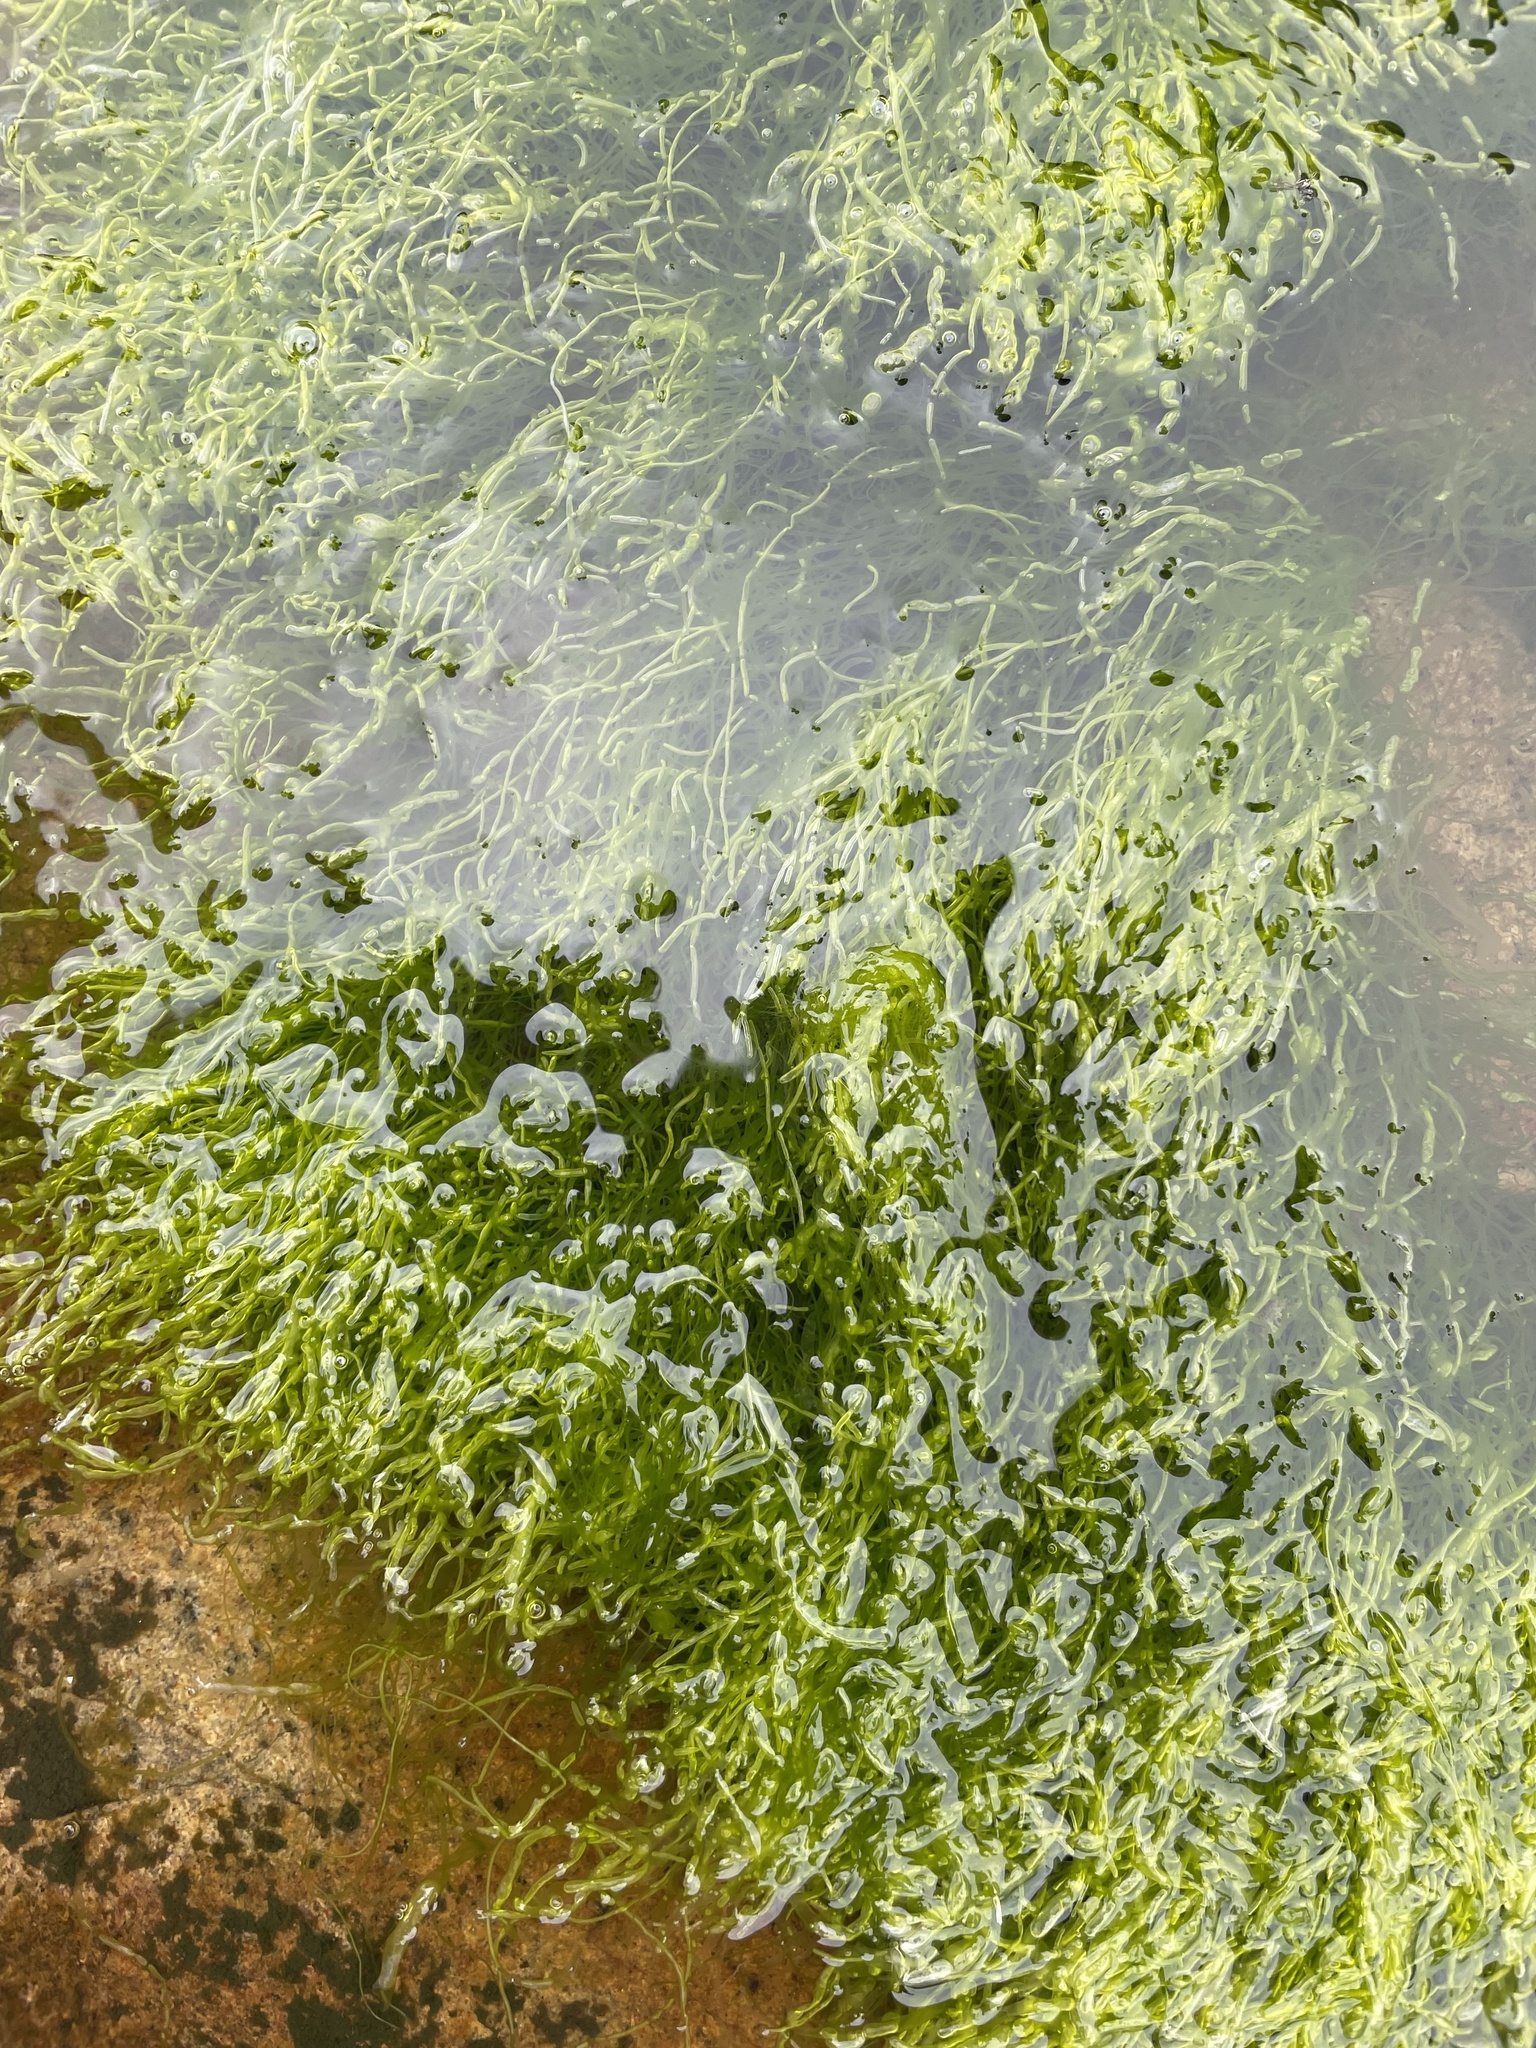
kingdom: Plantae
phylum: Chlorophyta
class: Ulvophyceae
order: Ulvales
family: Ulvaceae
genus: Ulva
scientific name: Ulva intestinalis
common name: Gut weed
